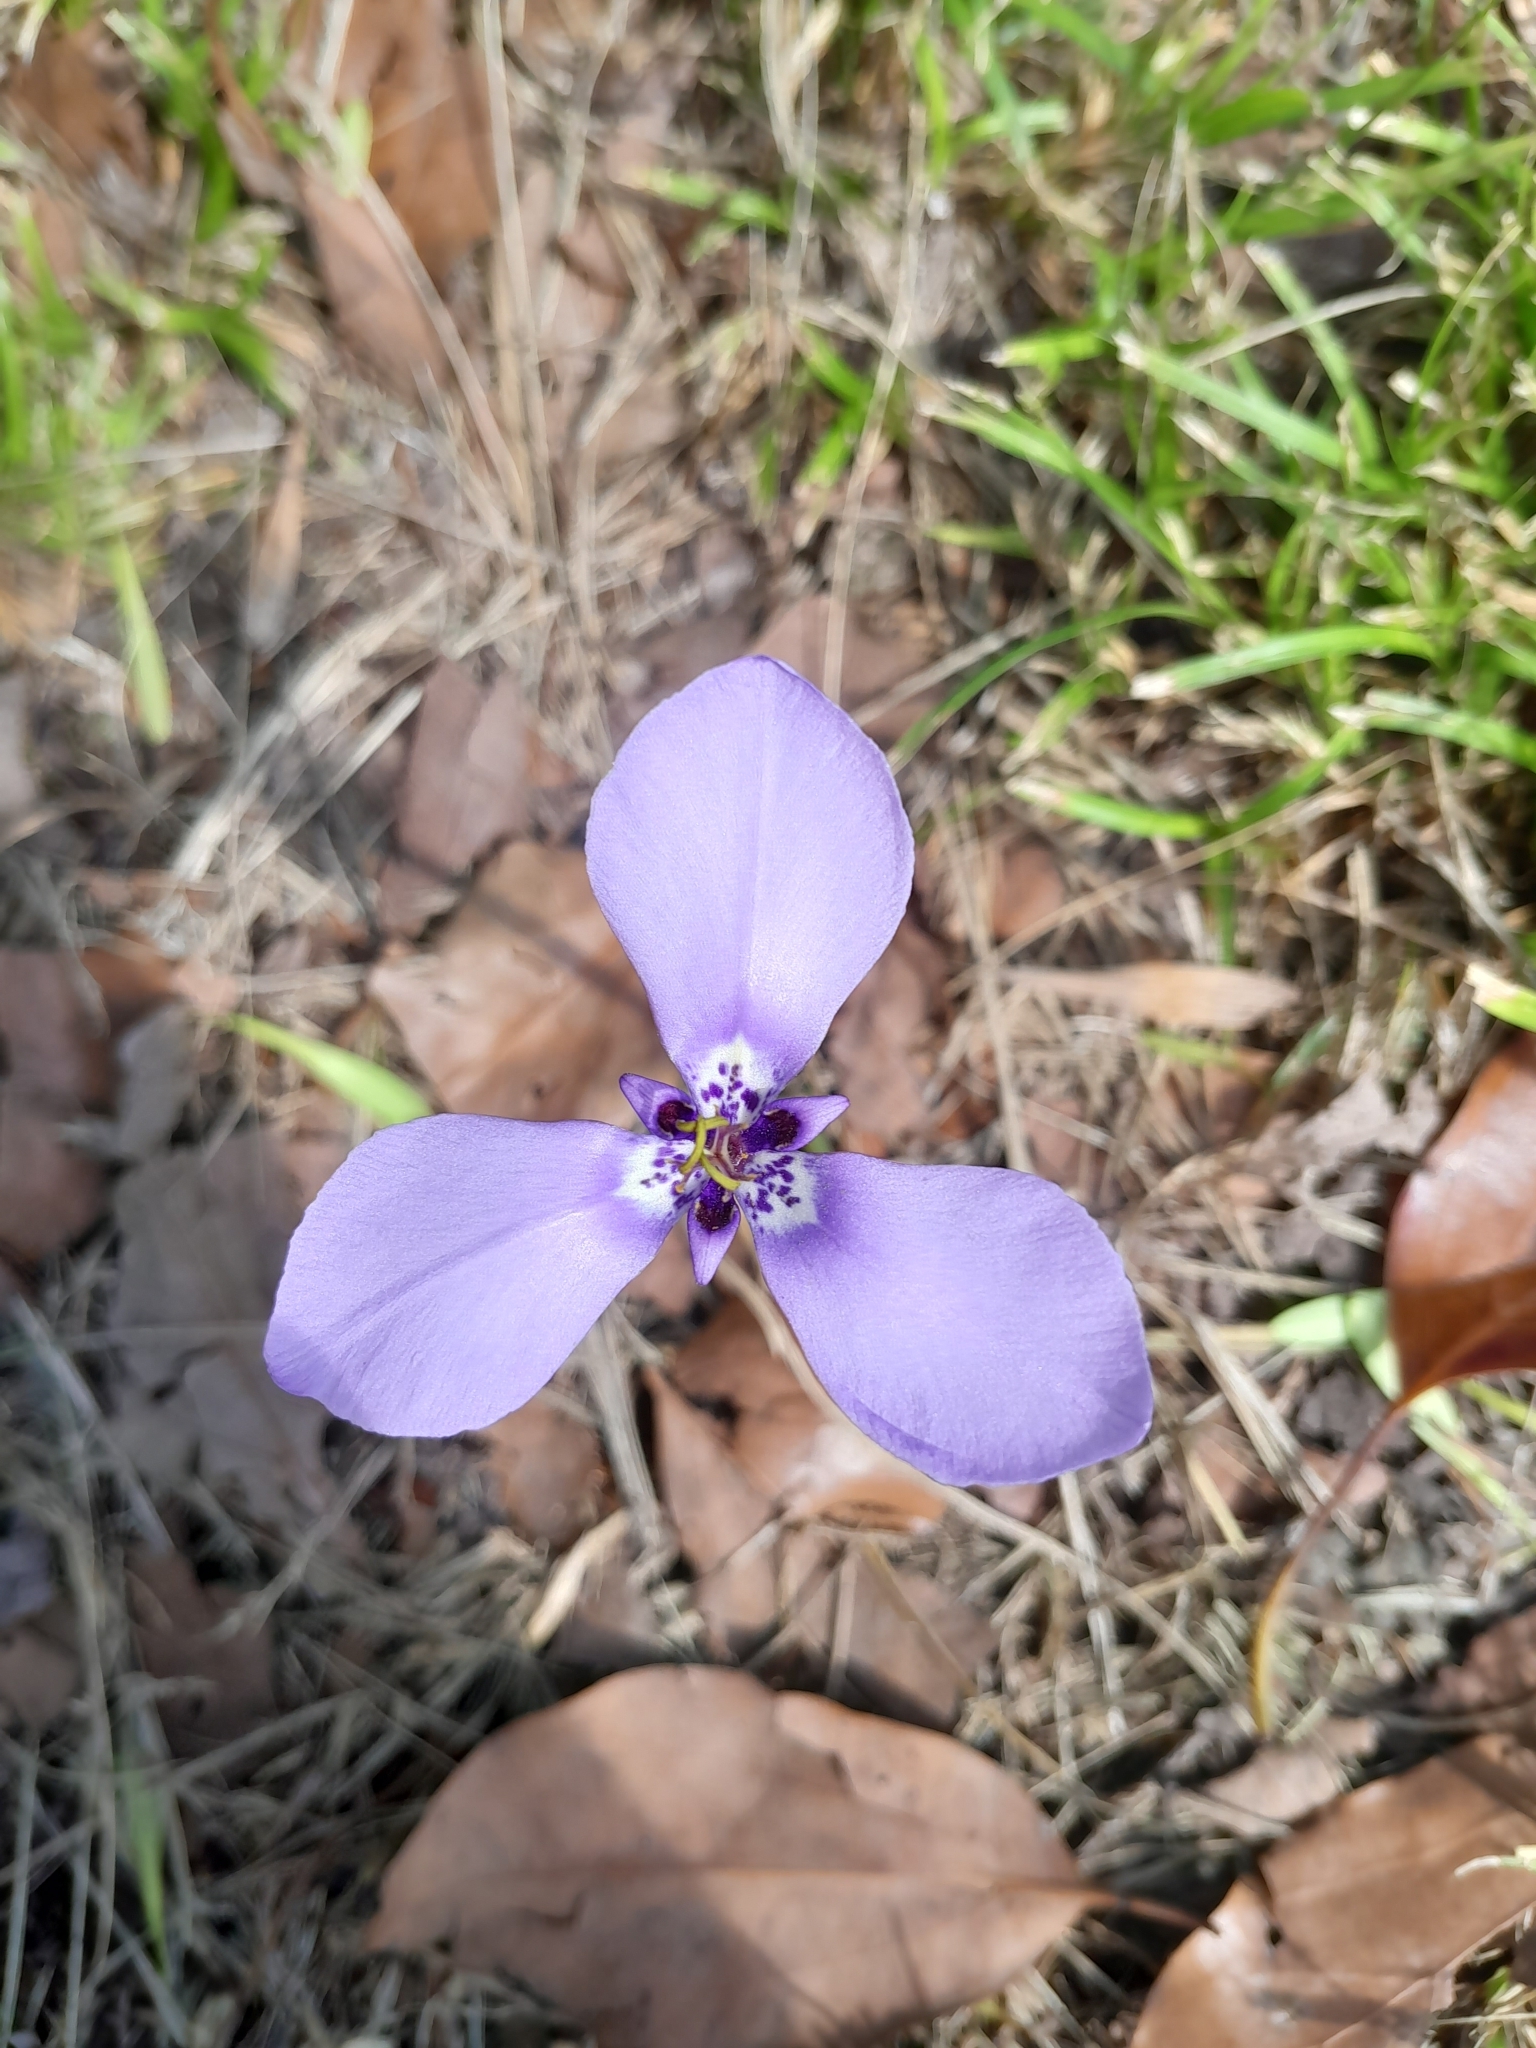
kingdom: Plantae
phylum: Tracheophyta
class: Liliopsida
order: Asparagales
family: Iridaceae
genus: Herbertia
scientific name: Herbertia lahue
